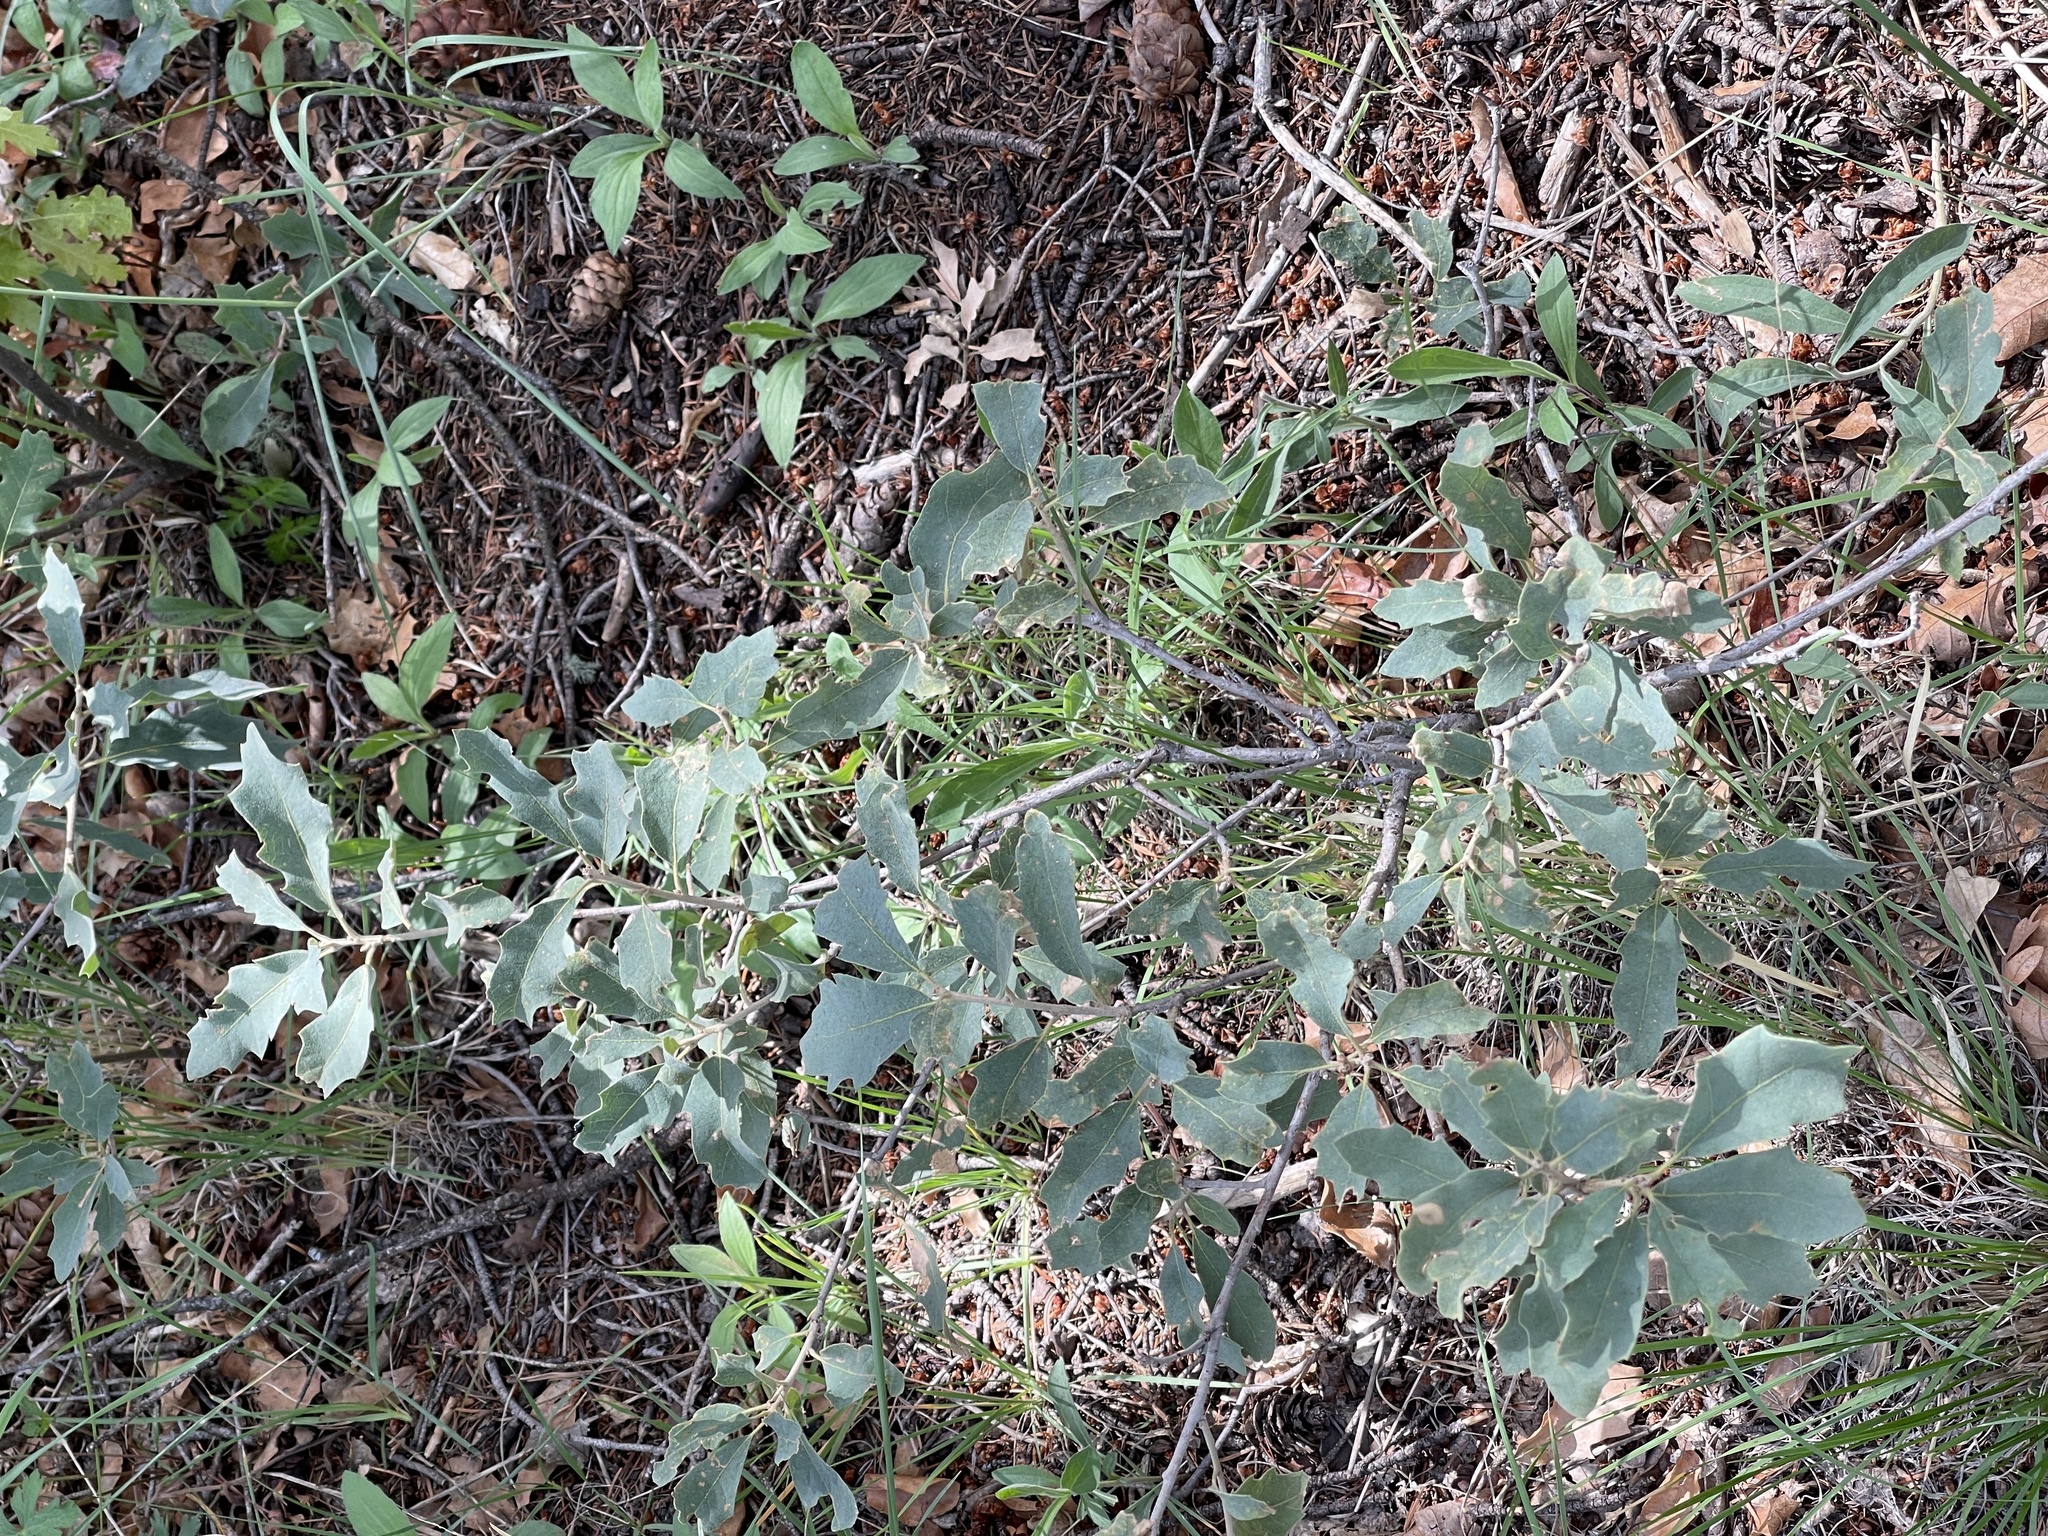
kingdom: Plantae
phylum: Tracheophyta
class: Magnoliopsida
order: Fagales
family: Fagaceae
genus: Quercus
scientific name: Quercus undulata
